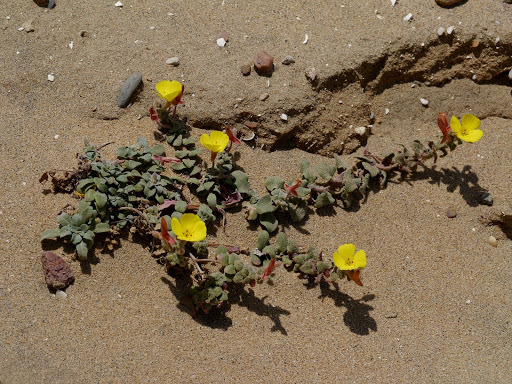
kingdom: Plantae
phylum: Tracheophyta
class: Magnoliopsida
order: Myrtales
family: Onagraceae
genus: Camissoniopsis
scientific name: Camissoniopsis cheiranthifolia
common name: Beach suncup
